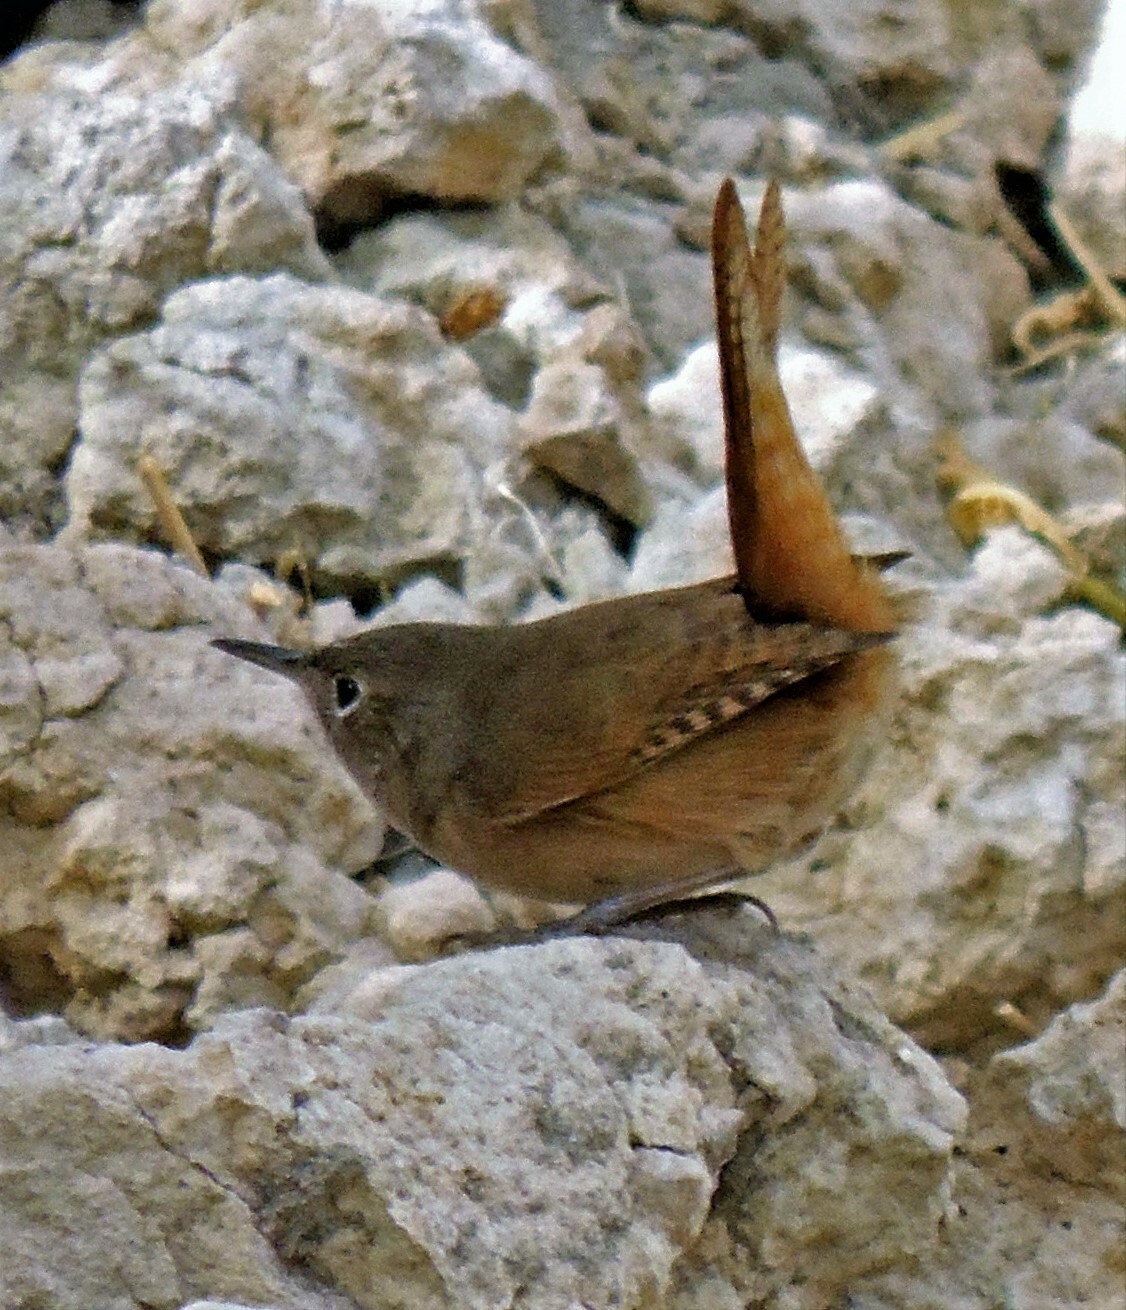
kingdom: Animalia
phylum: Chordata
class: Aves
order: Passeriformes
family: Troglodytidae
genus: Troglodytes
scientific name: Troglodytes aedon
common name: House wren
